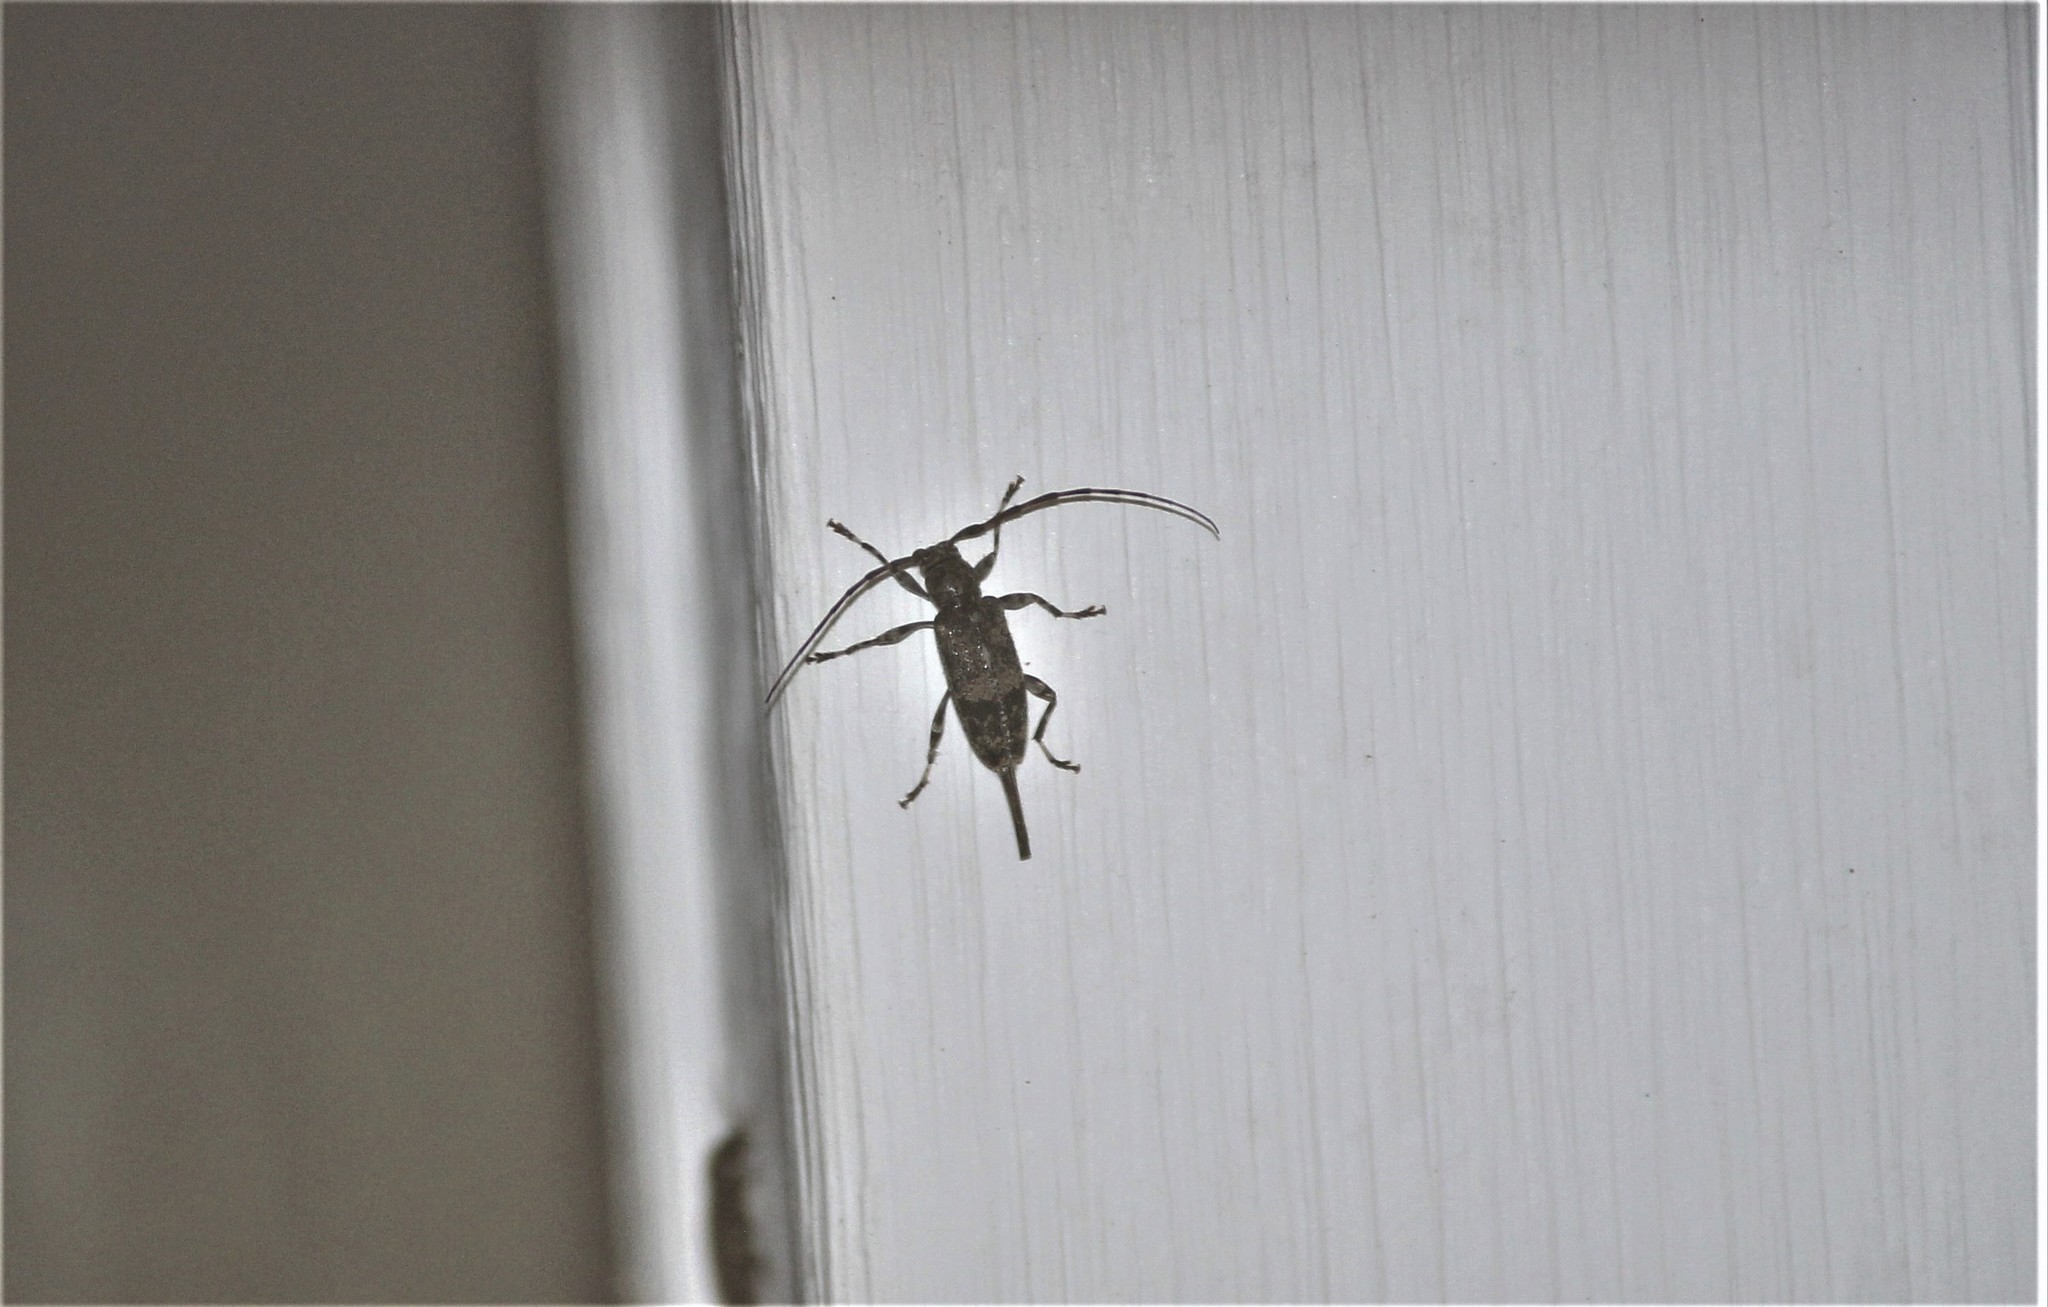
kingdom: Animalia
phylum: Arthropoda
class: Insecta
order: Coleoptera
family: Cerambycidae
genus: Graphisurus
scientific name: Graphisurus fasciatus
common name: Banded graphisurus
